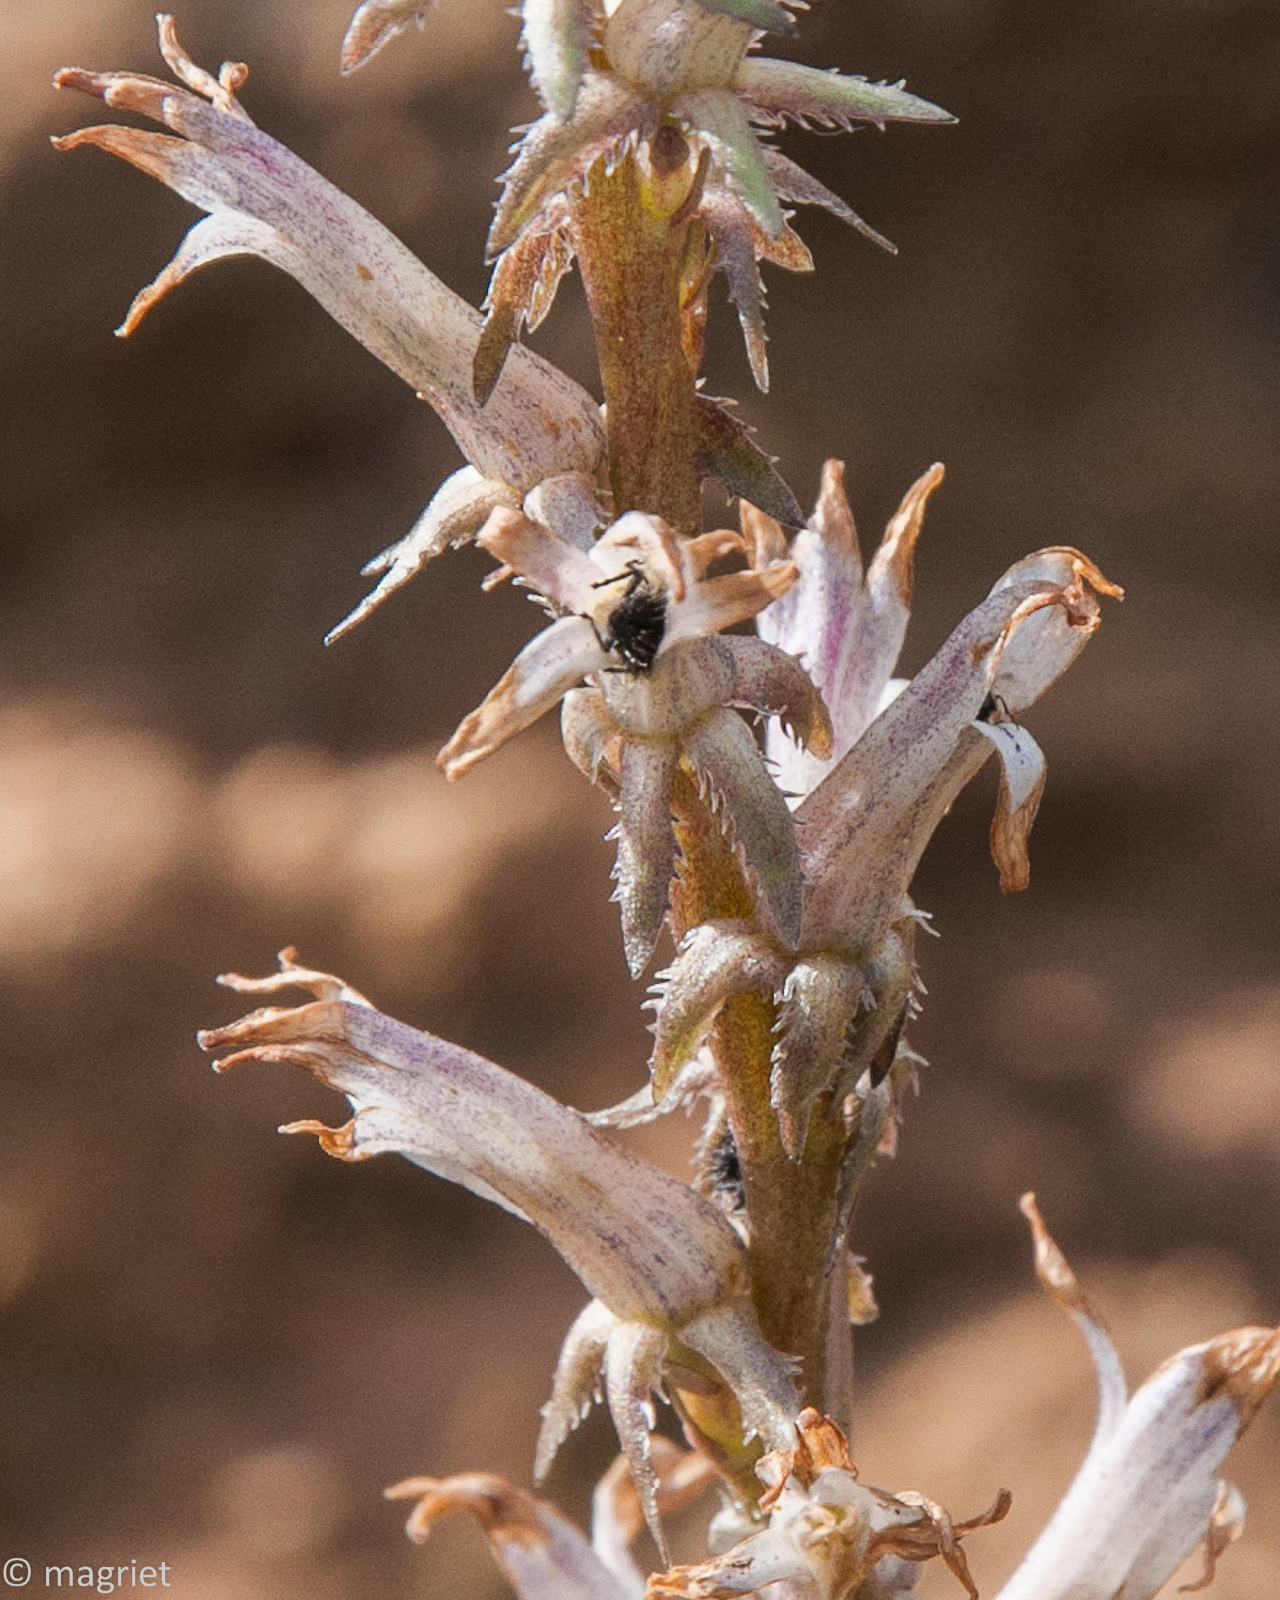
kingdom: Plantae
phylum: Tracheophyta
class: Magnoliopsida
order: Asterales
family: Campanulaceae
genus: Cyphia
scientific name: Cyphia phyteuma
